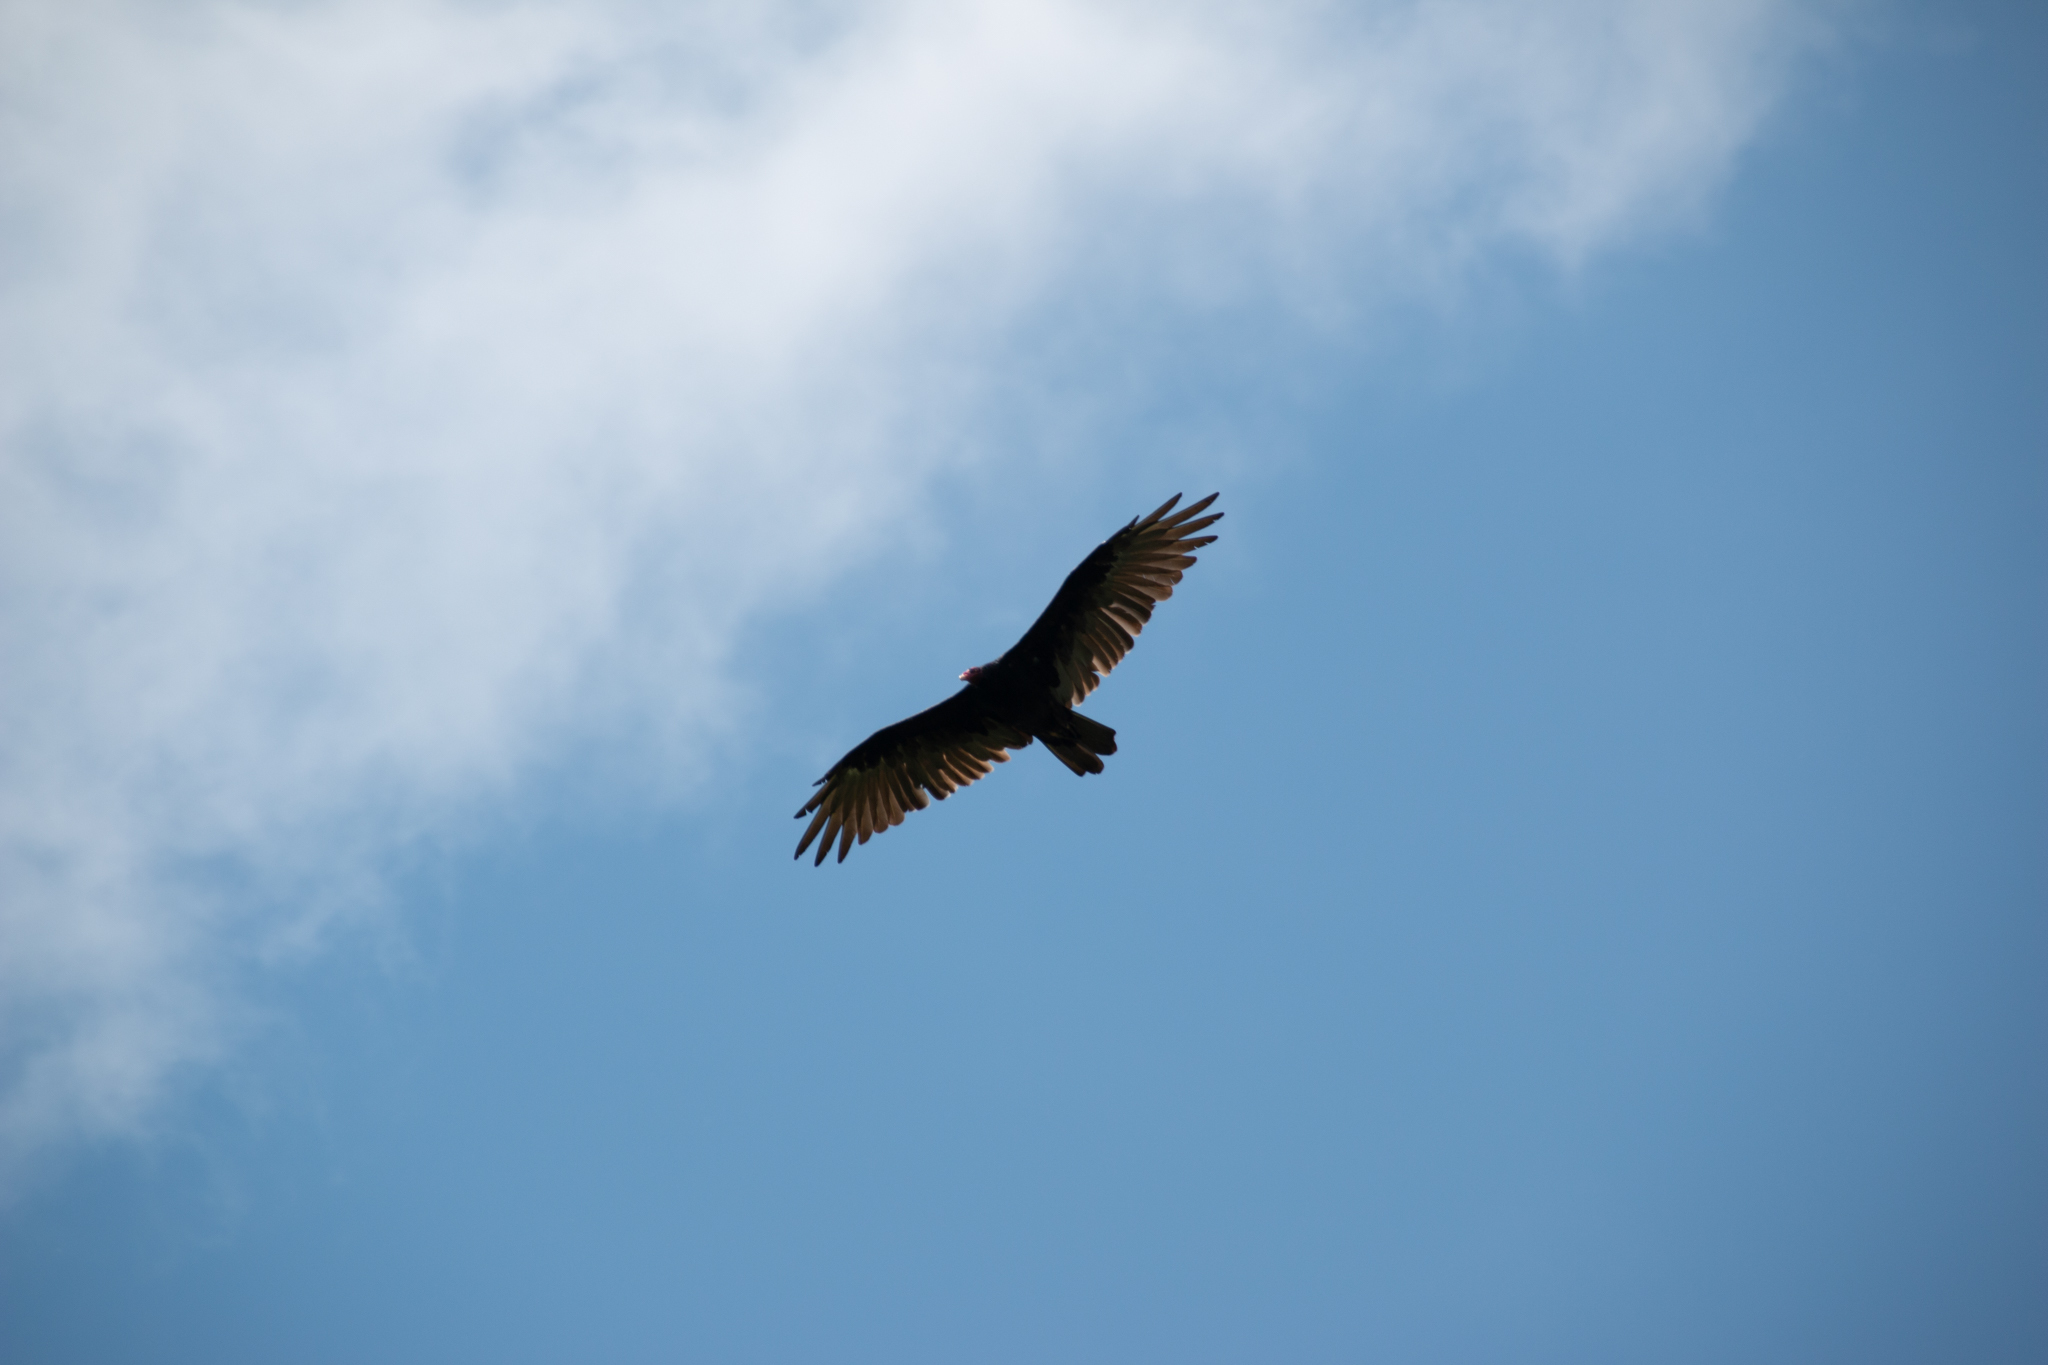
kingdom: Animalia
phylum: Chordata
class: Aves
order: Accipitriformes
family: Cathartidae
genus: Cathartes
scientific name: Cathartes aura
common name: Turkey vulture
